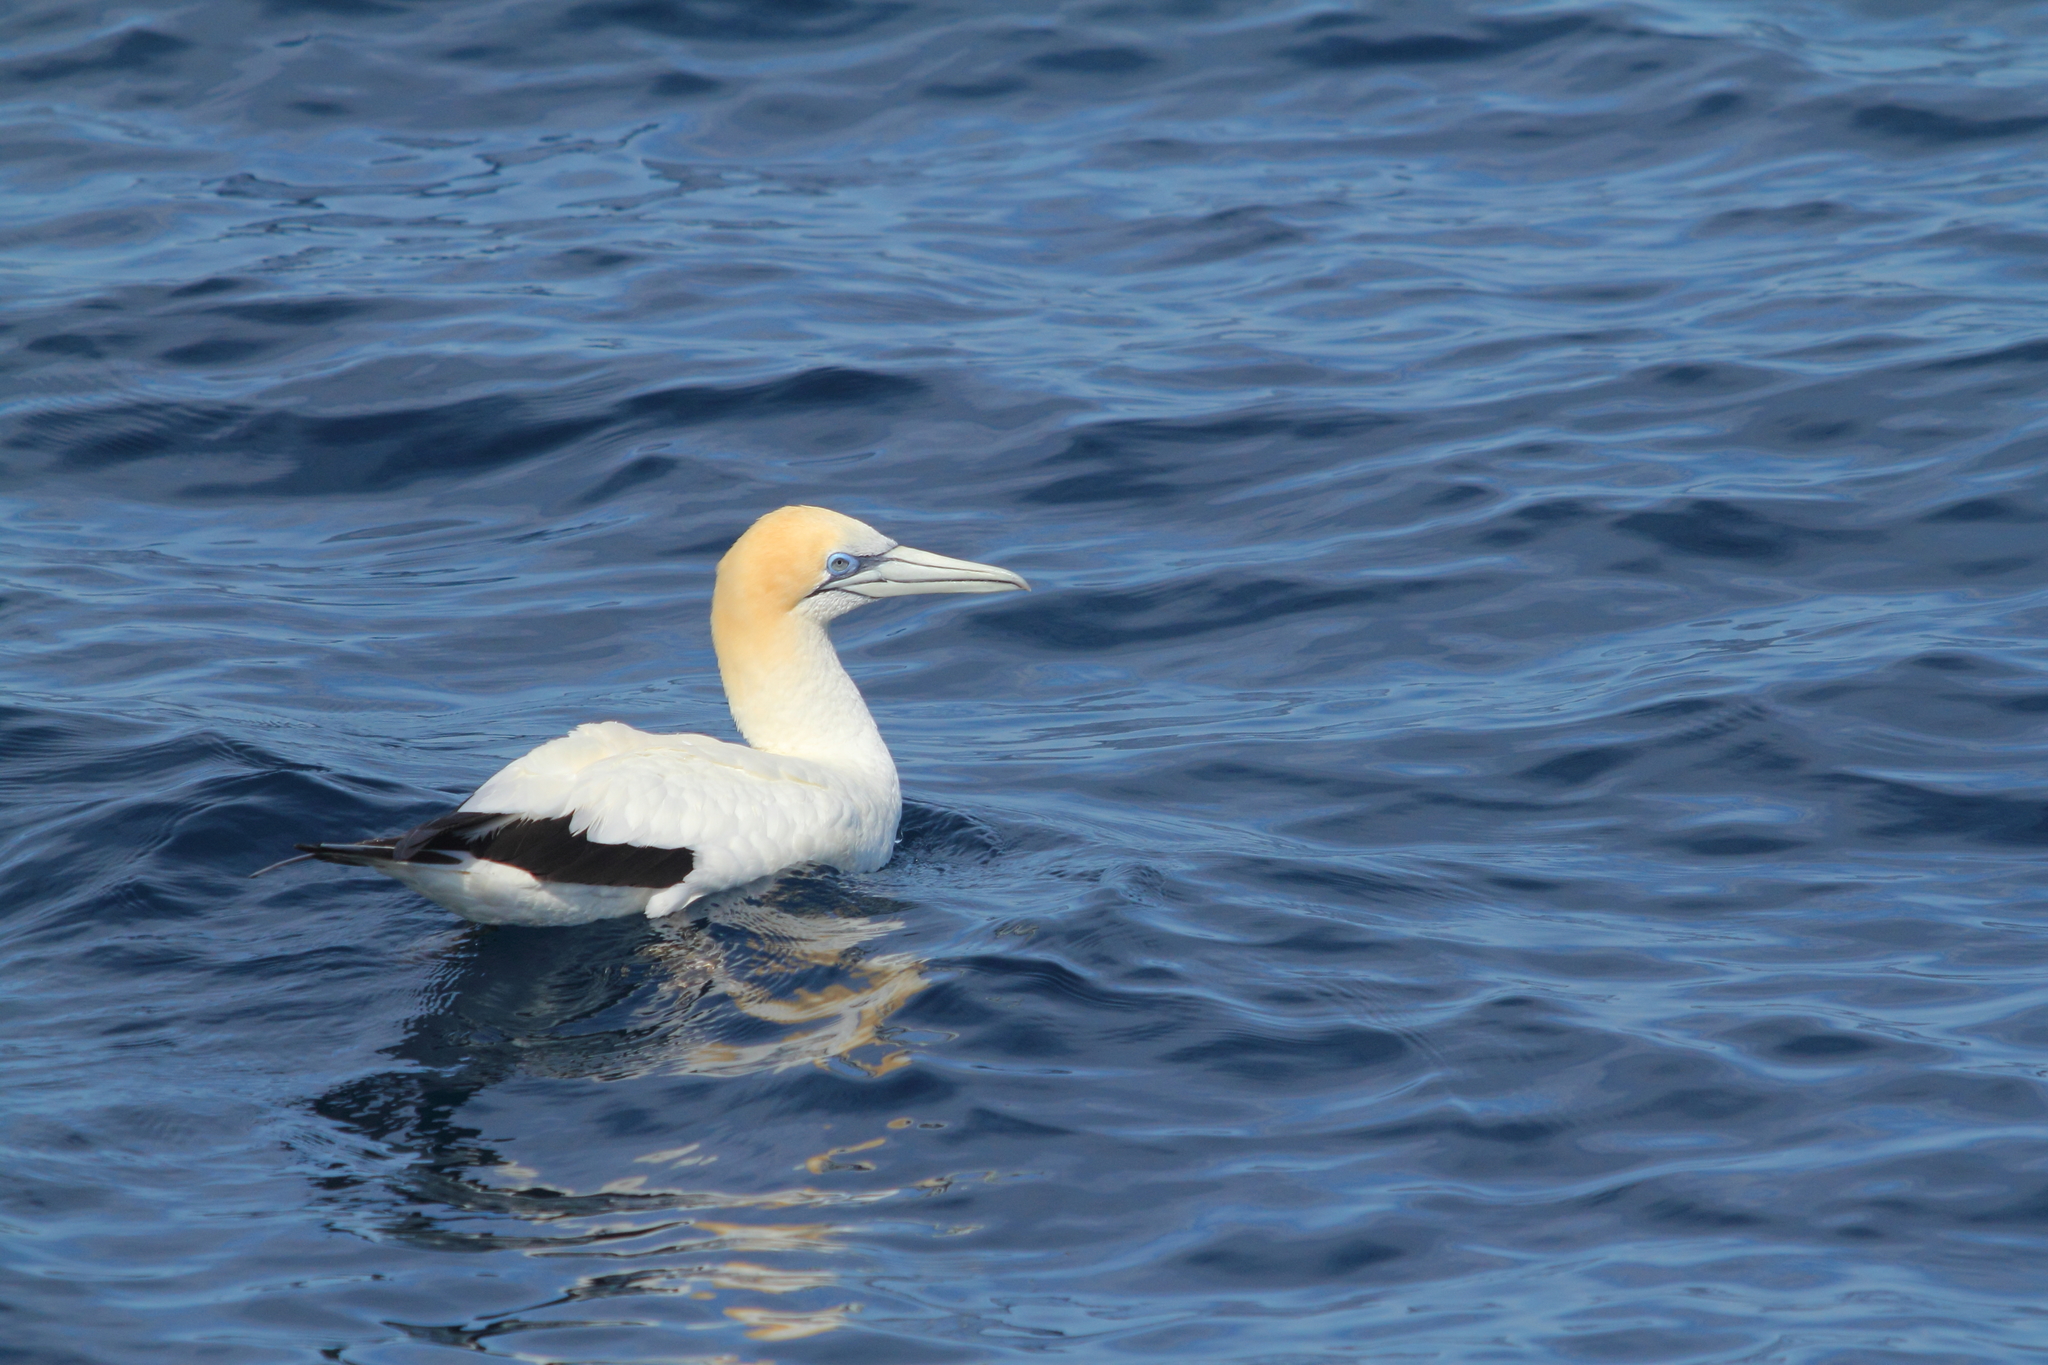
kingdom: Animalia
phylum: Chordata
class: Aves
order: Suliformes
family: Sulidae
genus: Morus
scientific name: Morus serrator
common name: Australasian gannet
